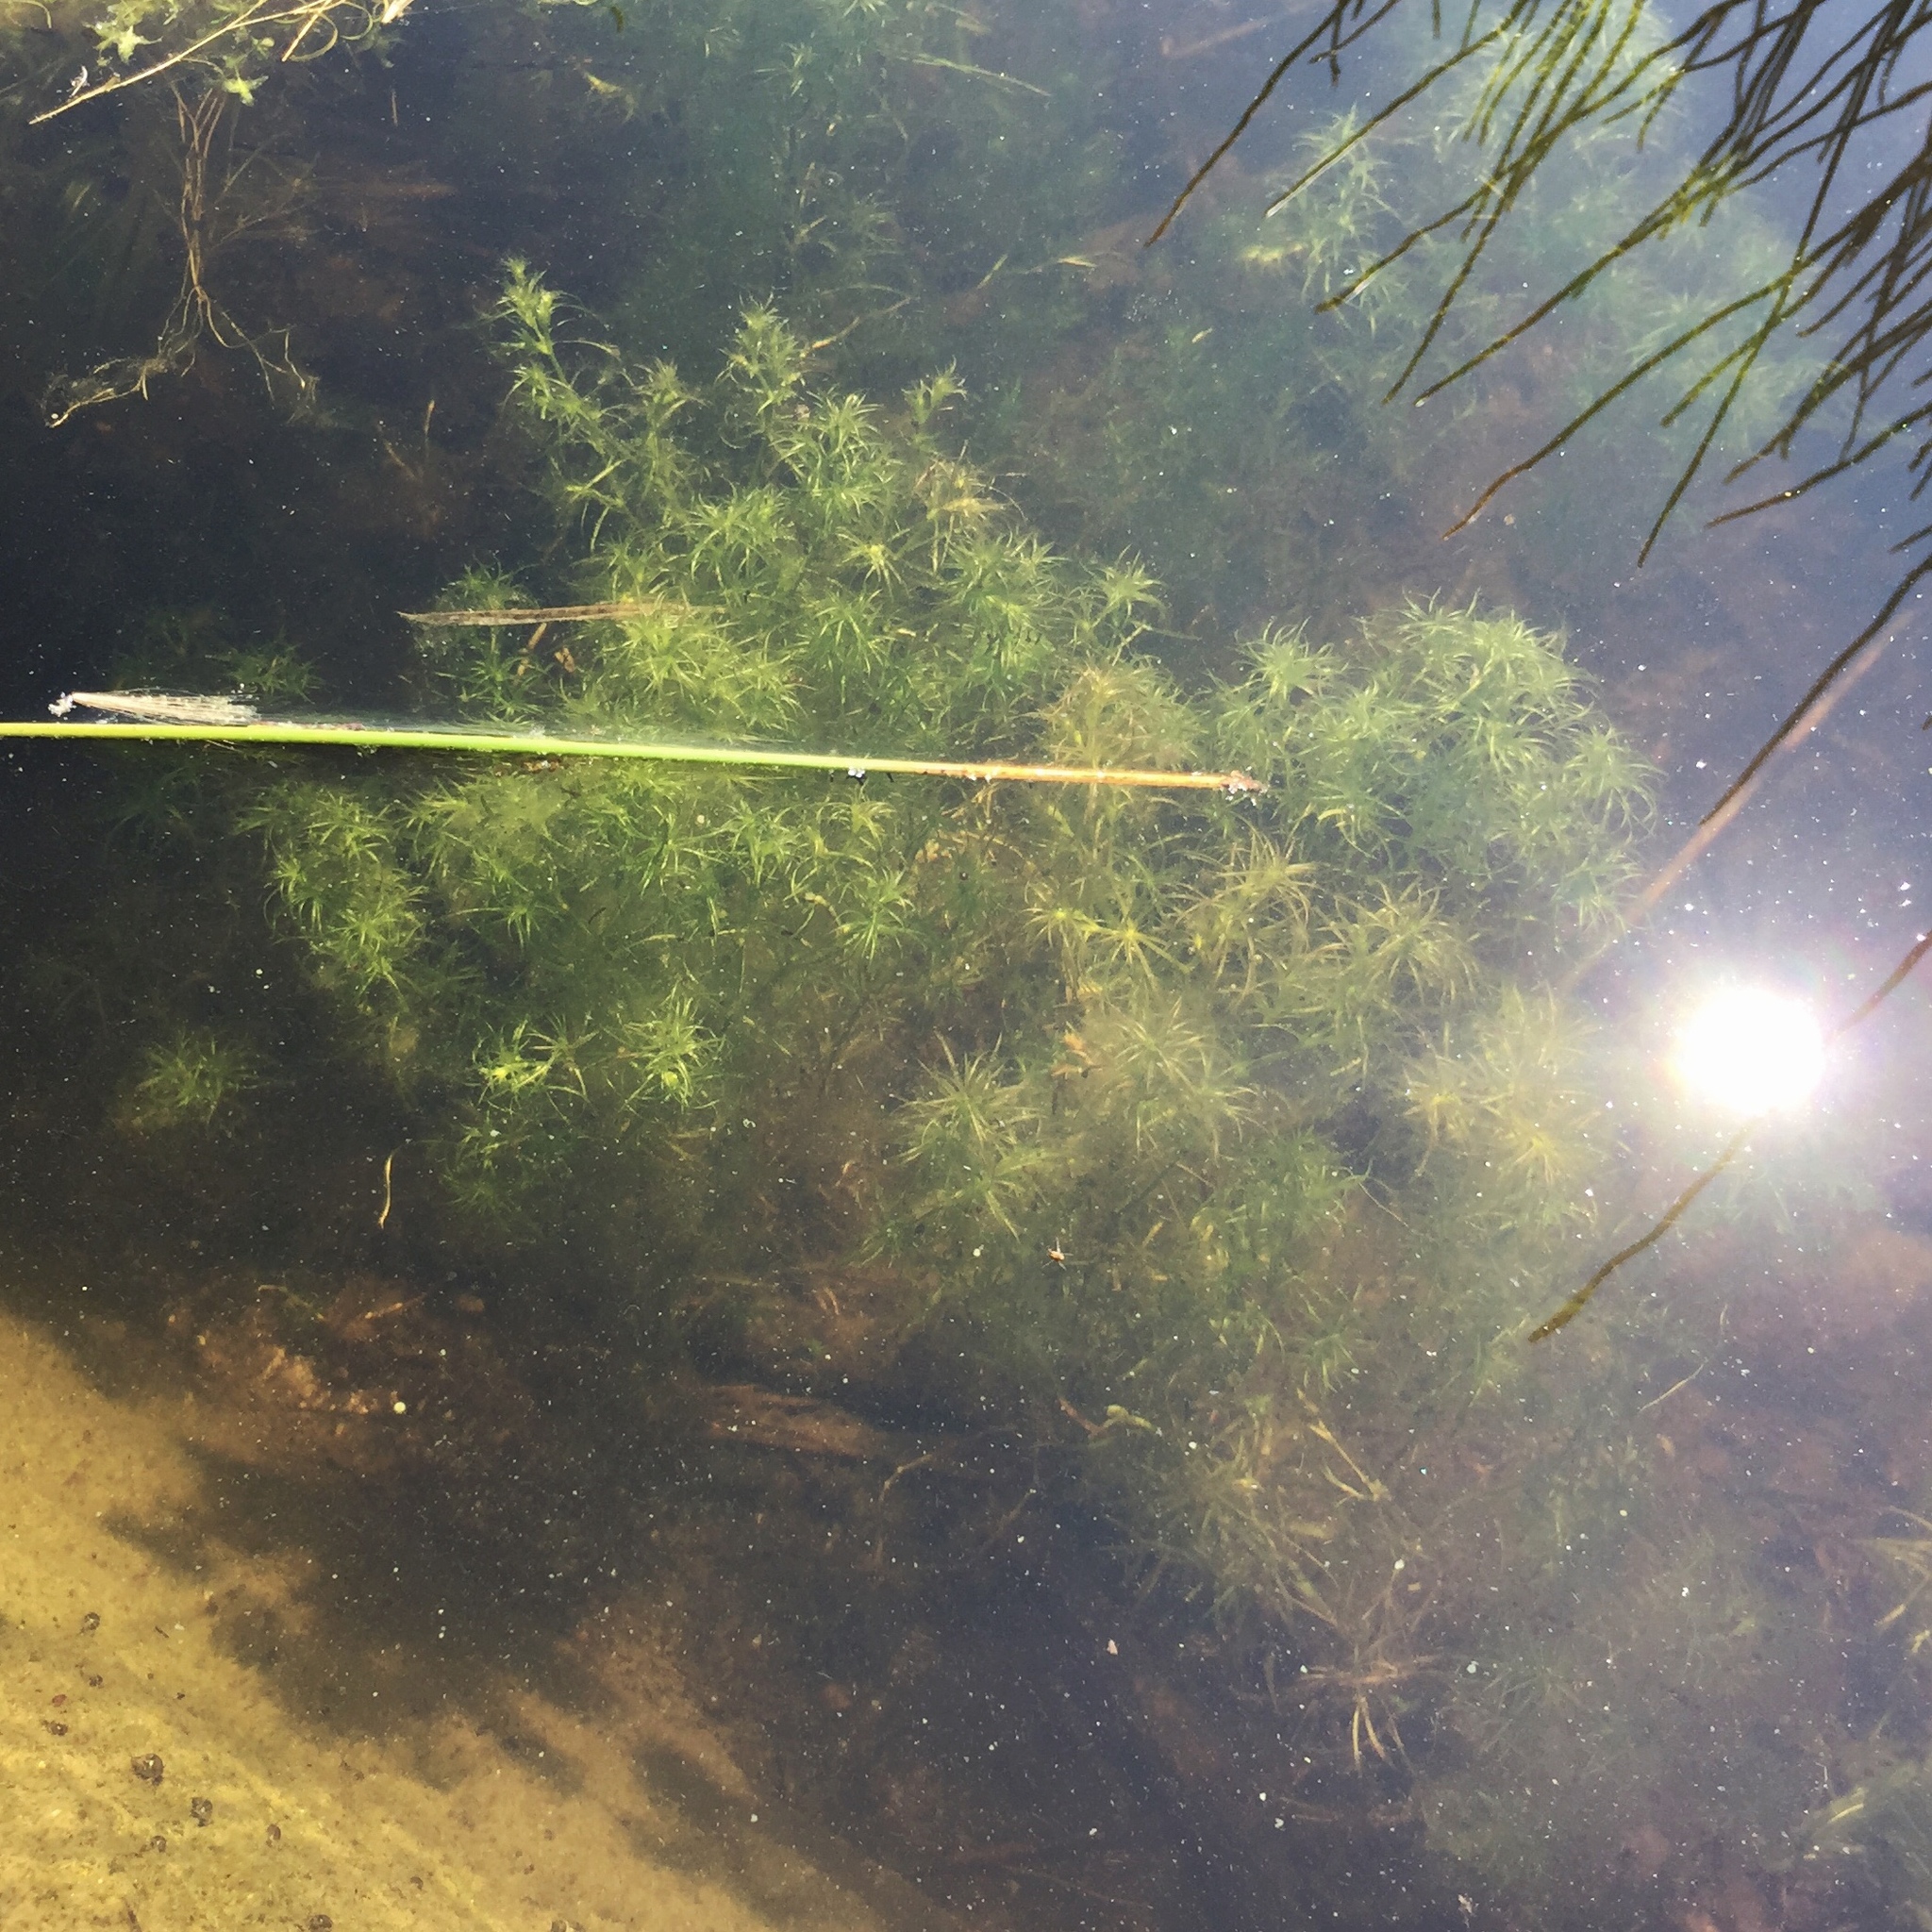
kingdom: Plantae
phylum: Tracheophyta
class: Liliopsida
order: Alismatales
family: Hydrocharitaceae
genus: Najas
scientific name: Najas flexilis
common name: Slender naiad
